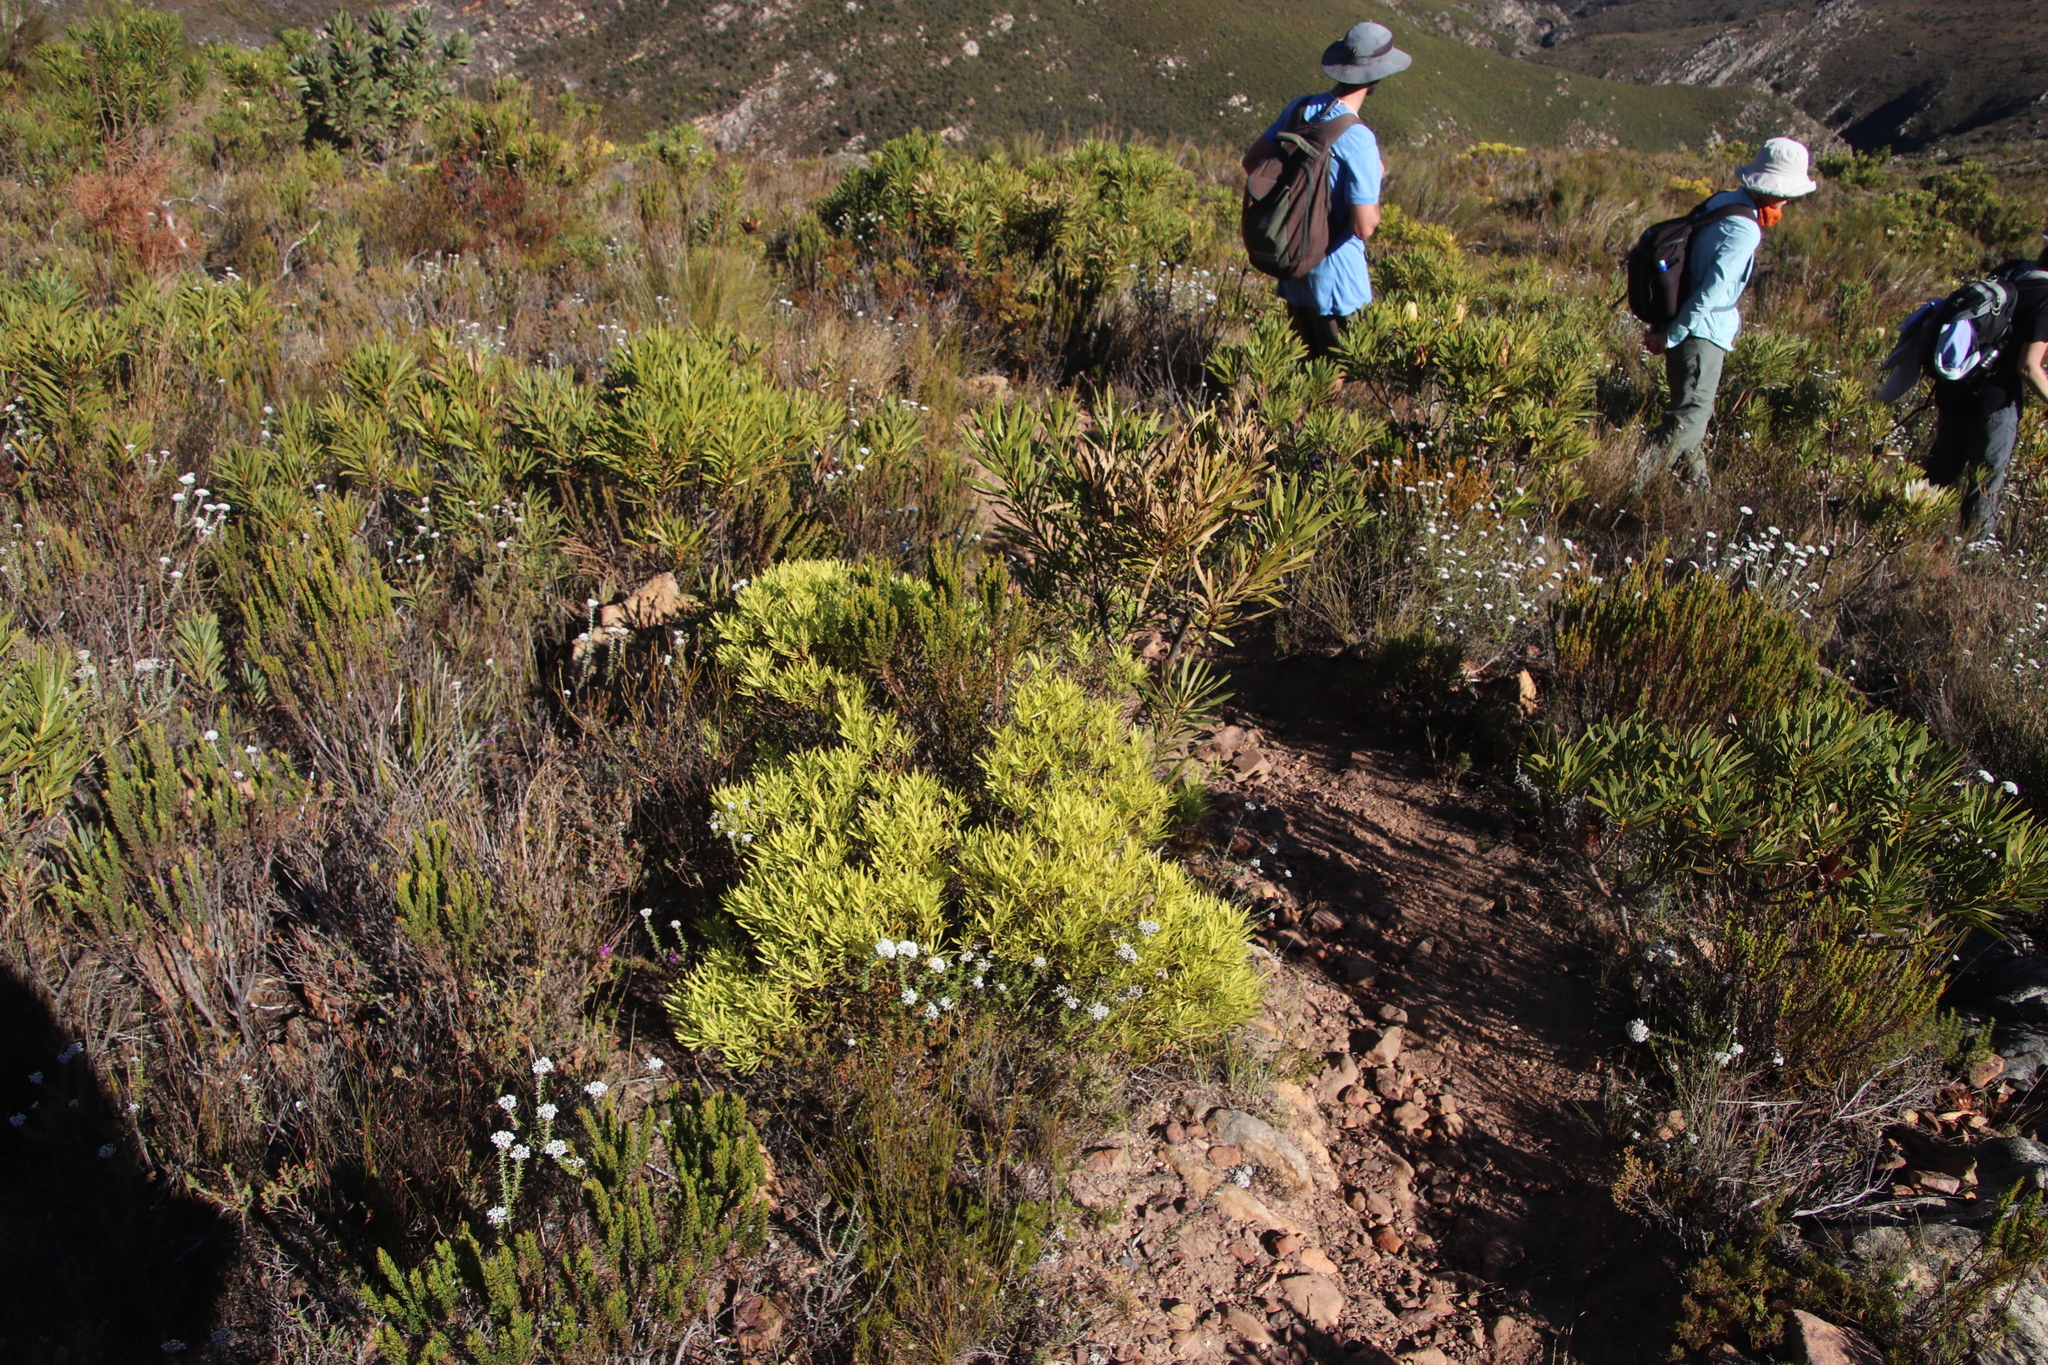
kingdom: Plantae
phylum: Tracheophyta
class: Magnoliopsida
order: Proteales
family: Proteaceae
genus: Leucadendron
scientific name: Leucadendron salignum
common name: Common sunshine conebush
